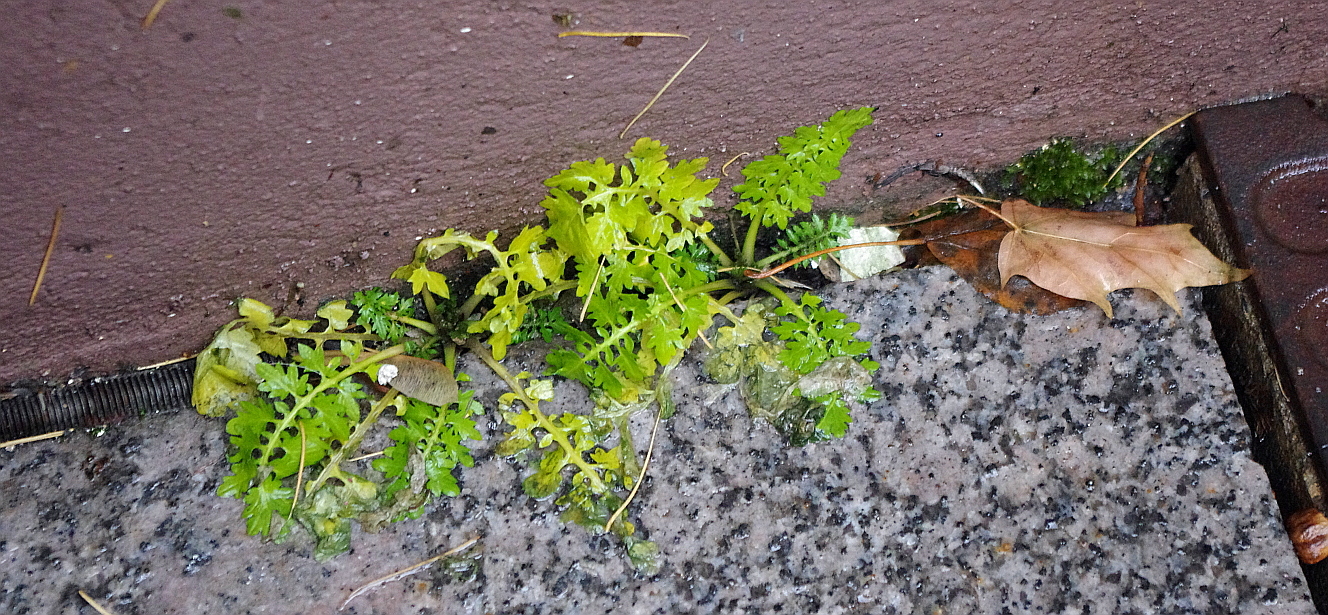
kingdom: Plantae
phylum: Tracheophyta
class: Magnoliopsida
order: Brassicales
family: Brassicaceae
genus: Rorippa
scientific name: Rorippa palustris
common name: Marsh yellow-cress
